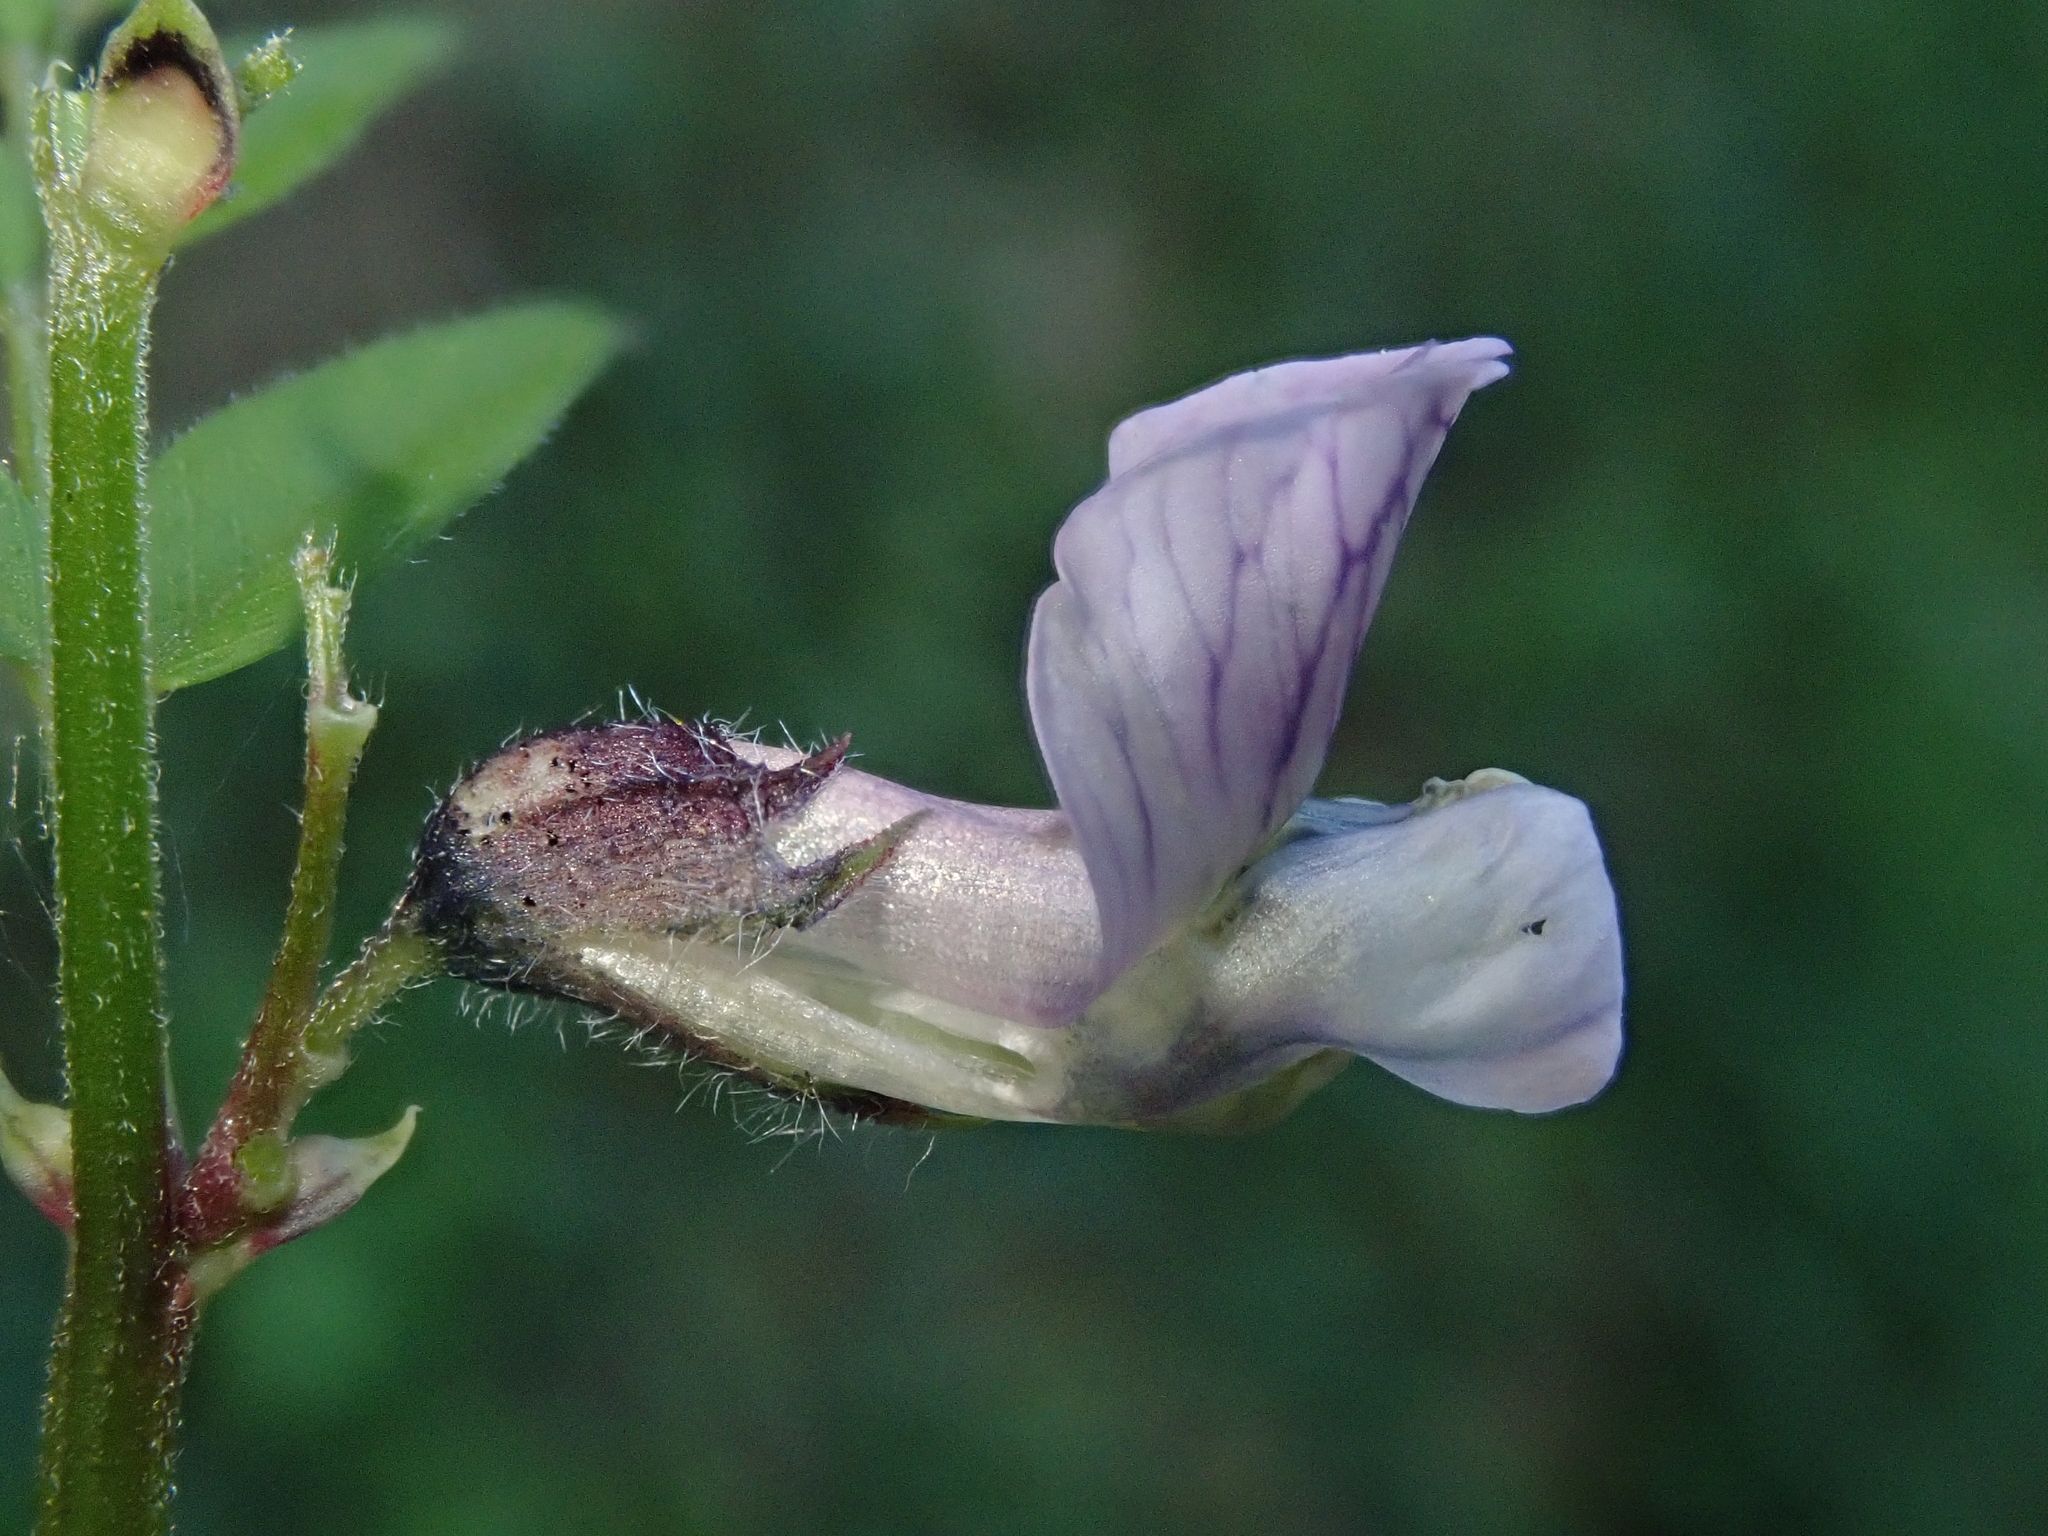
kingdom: Plantae
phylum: Tracheophyta
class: Magnoliopsida
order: Fabales
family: Fabaceae
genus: Vicia
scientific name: Vicia sepium
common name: Bush vetch
